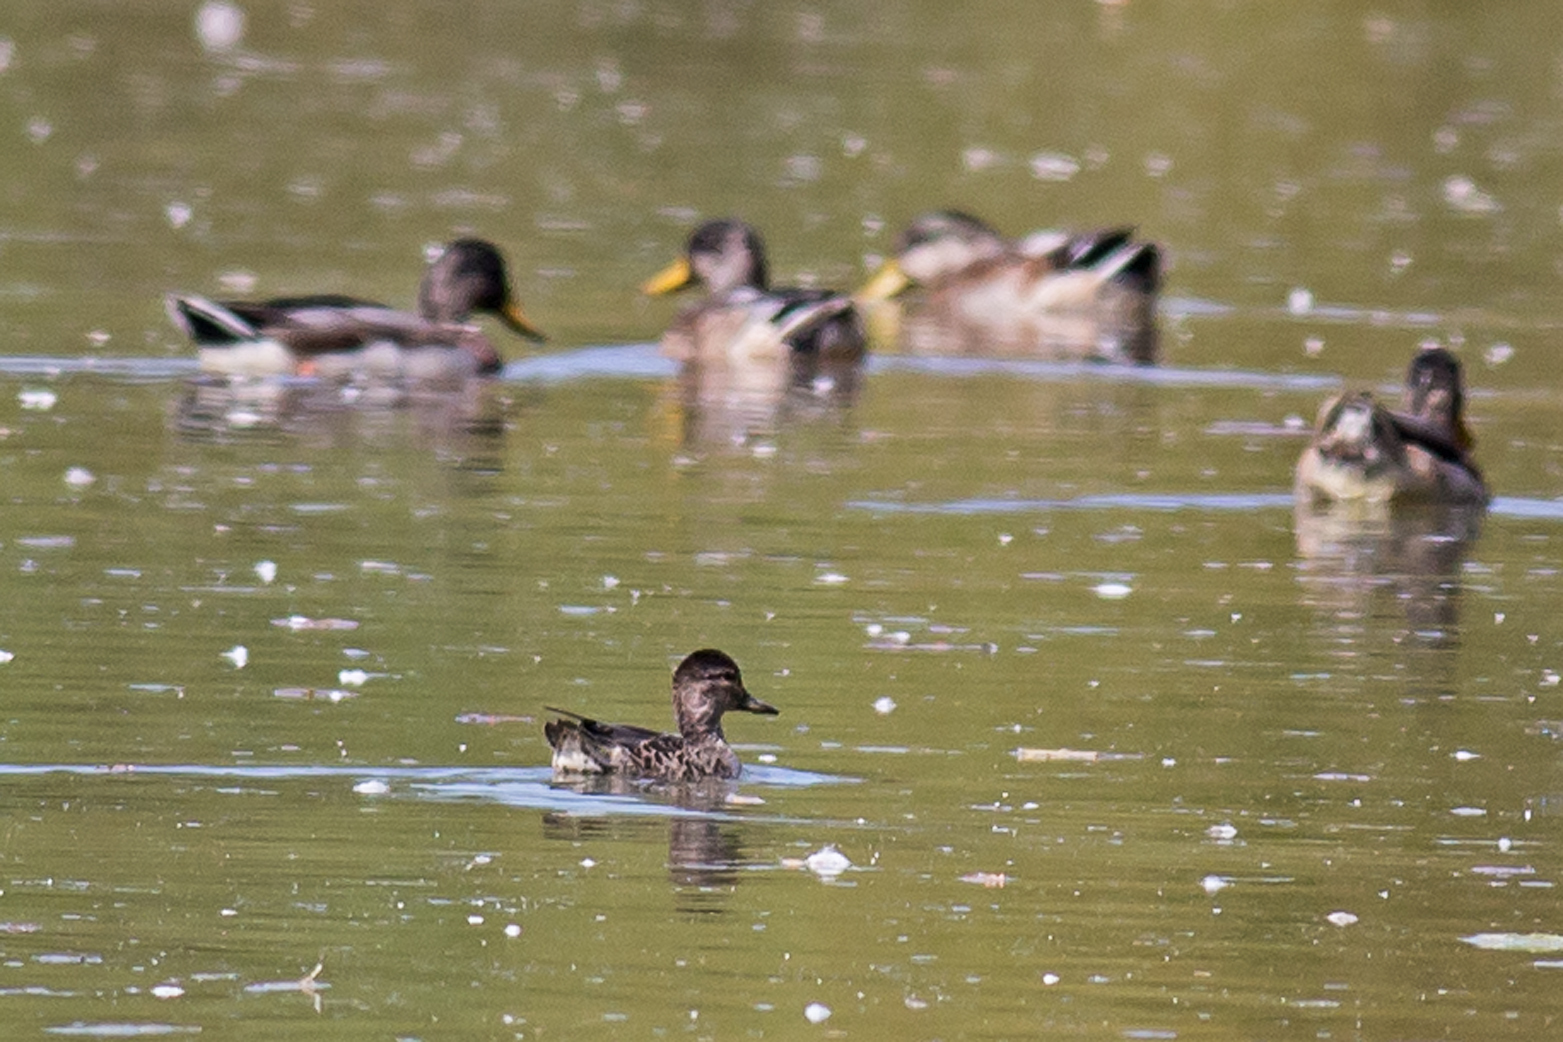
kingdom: Animalia
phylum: Chordata
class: Aves
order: Anseriformes
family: Anatidae
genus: Anas
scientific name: Anas crecca
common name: Eurasian teal
